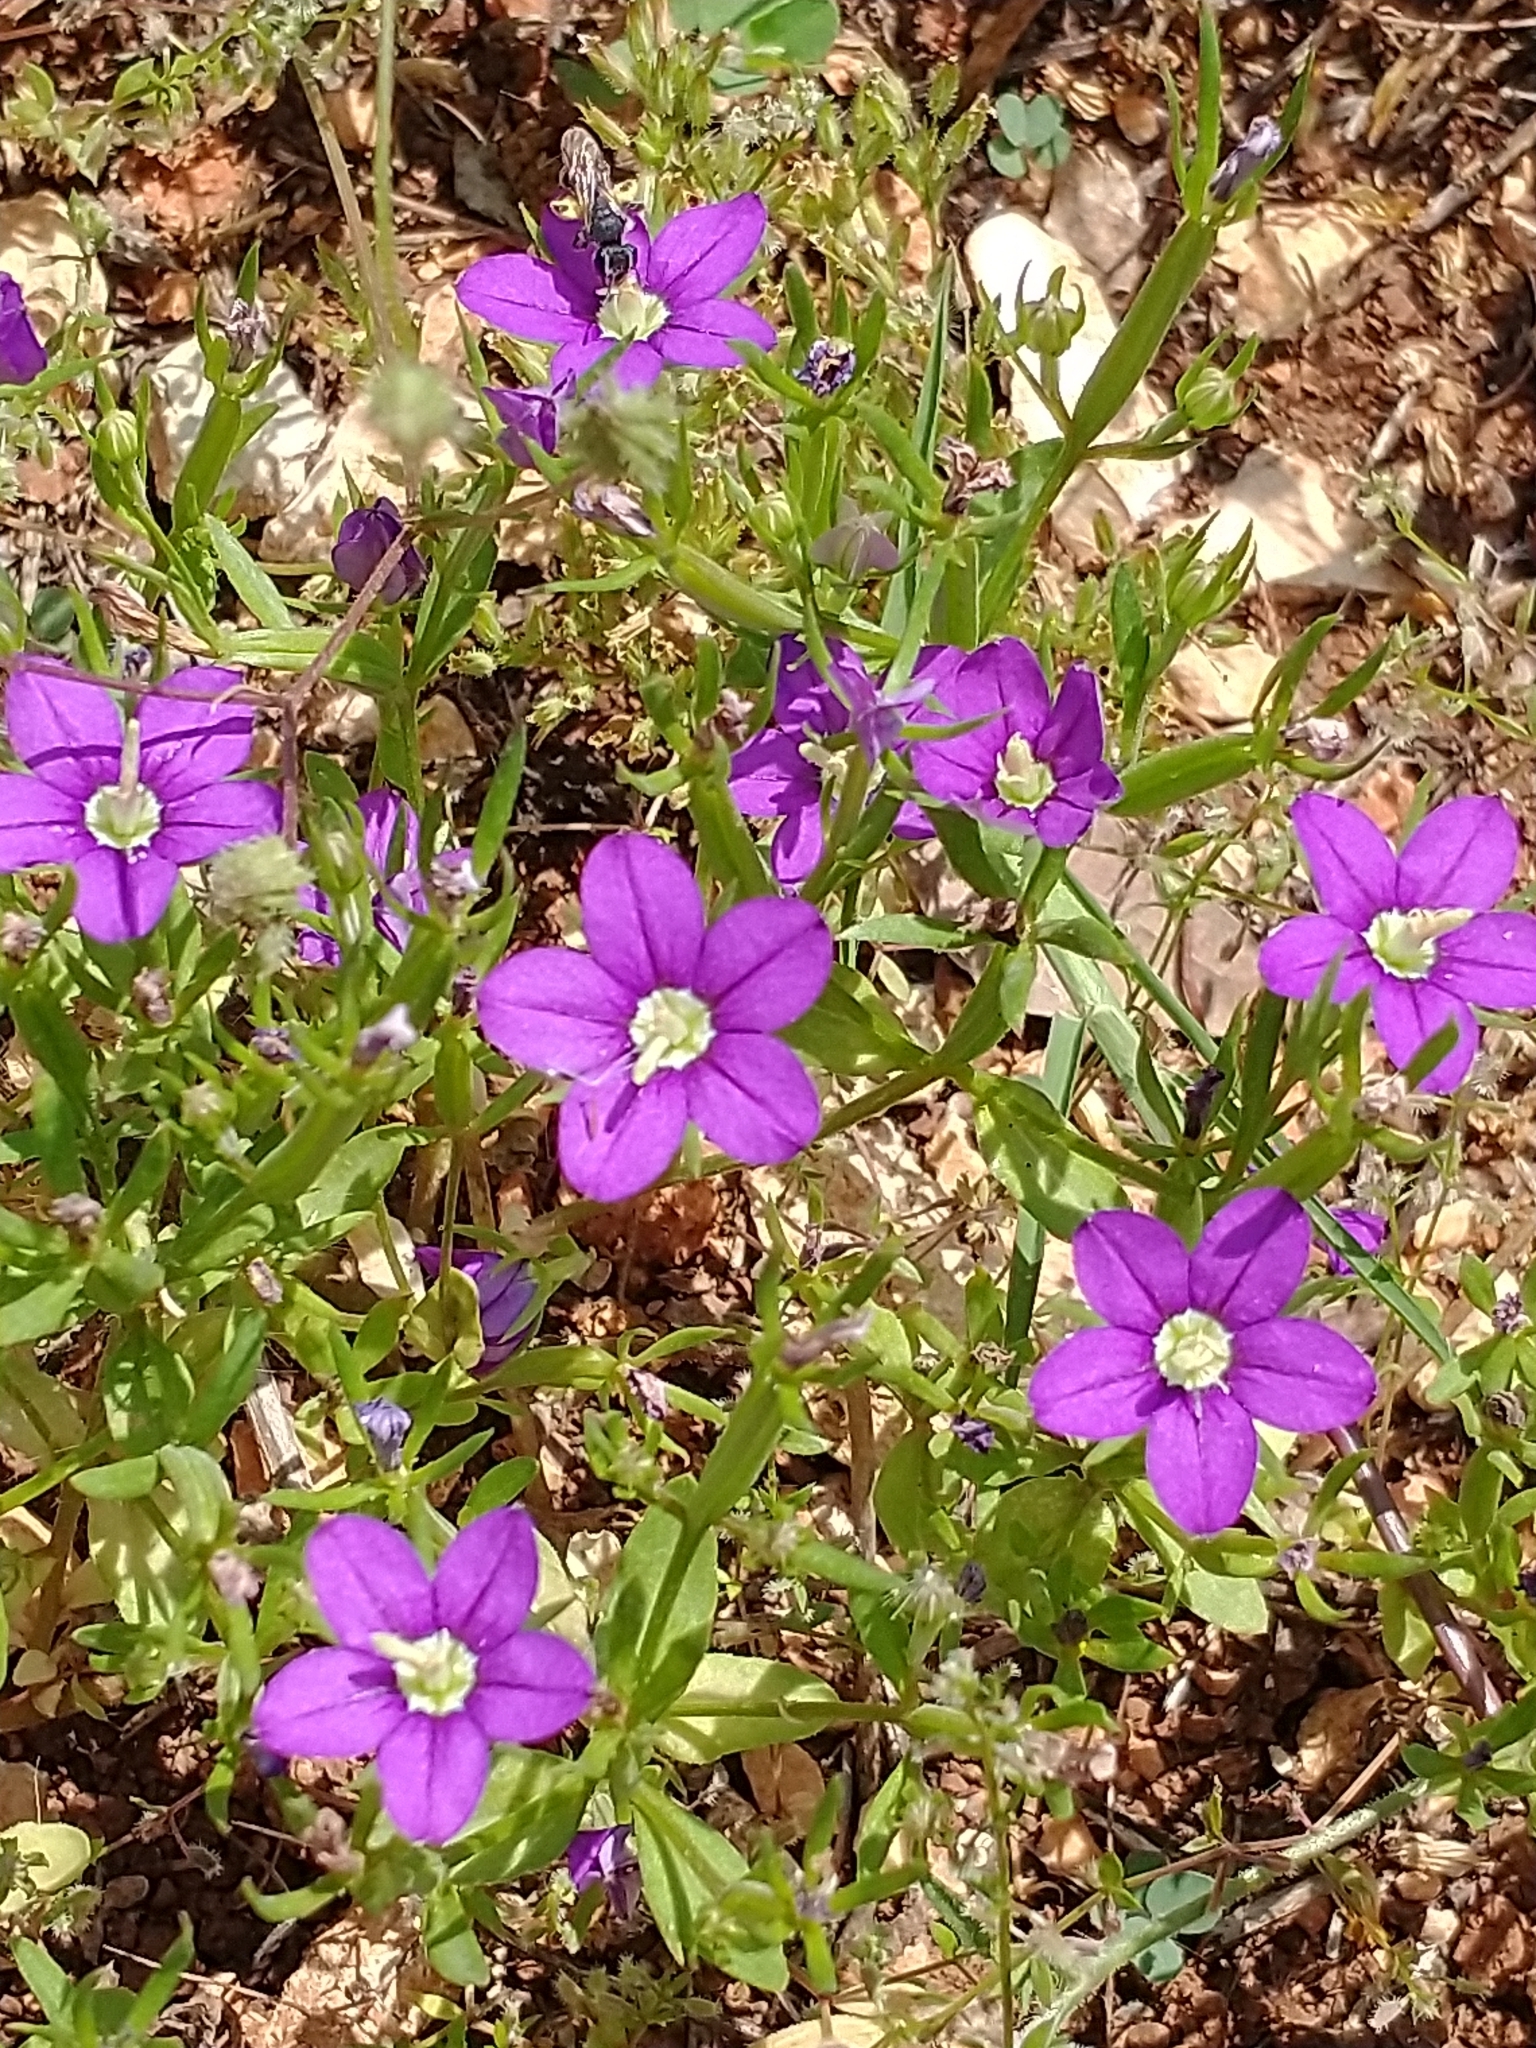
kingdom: Plantae
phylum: Tracheophyta
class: Magnoliopsida
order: Asterales
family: Campanulaceae
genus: Legousia
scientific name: Legousia speculum-veneris
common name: Large venus's-looking-glass
